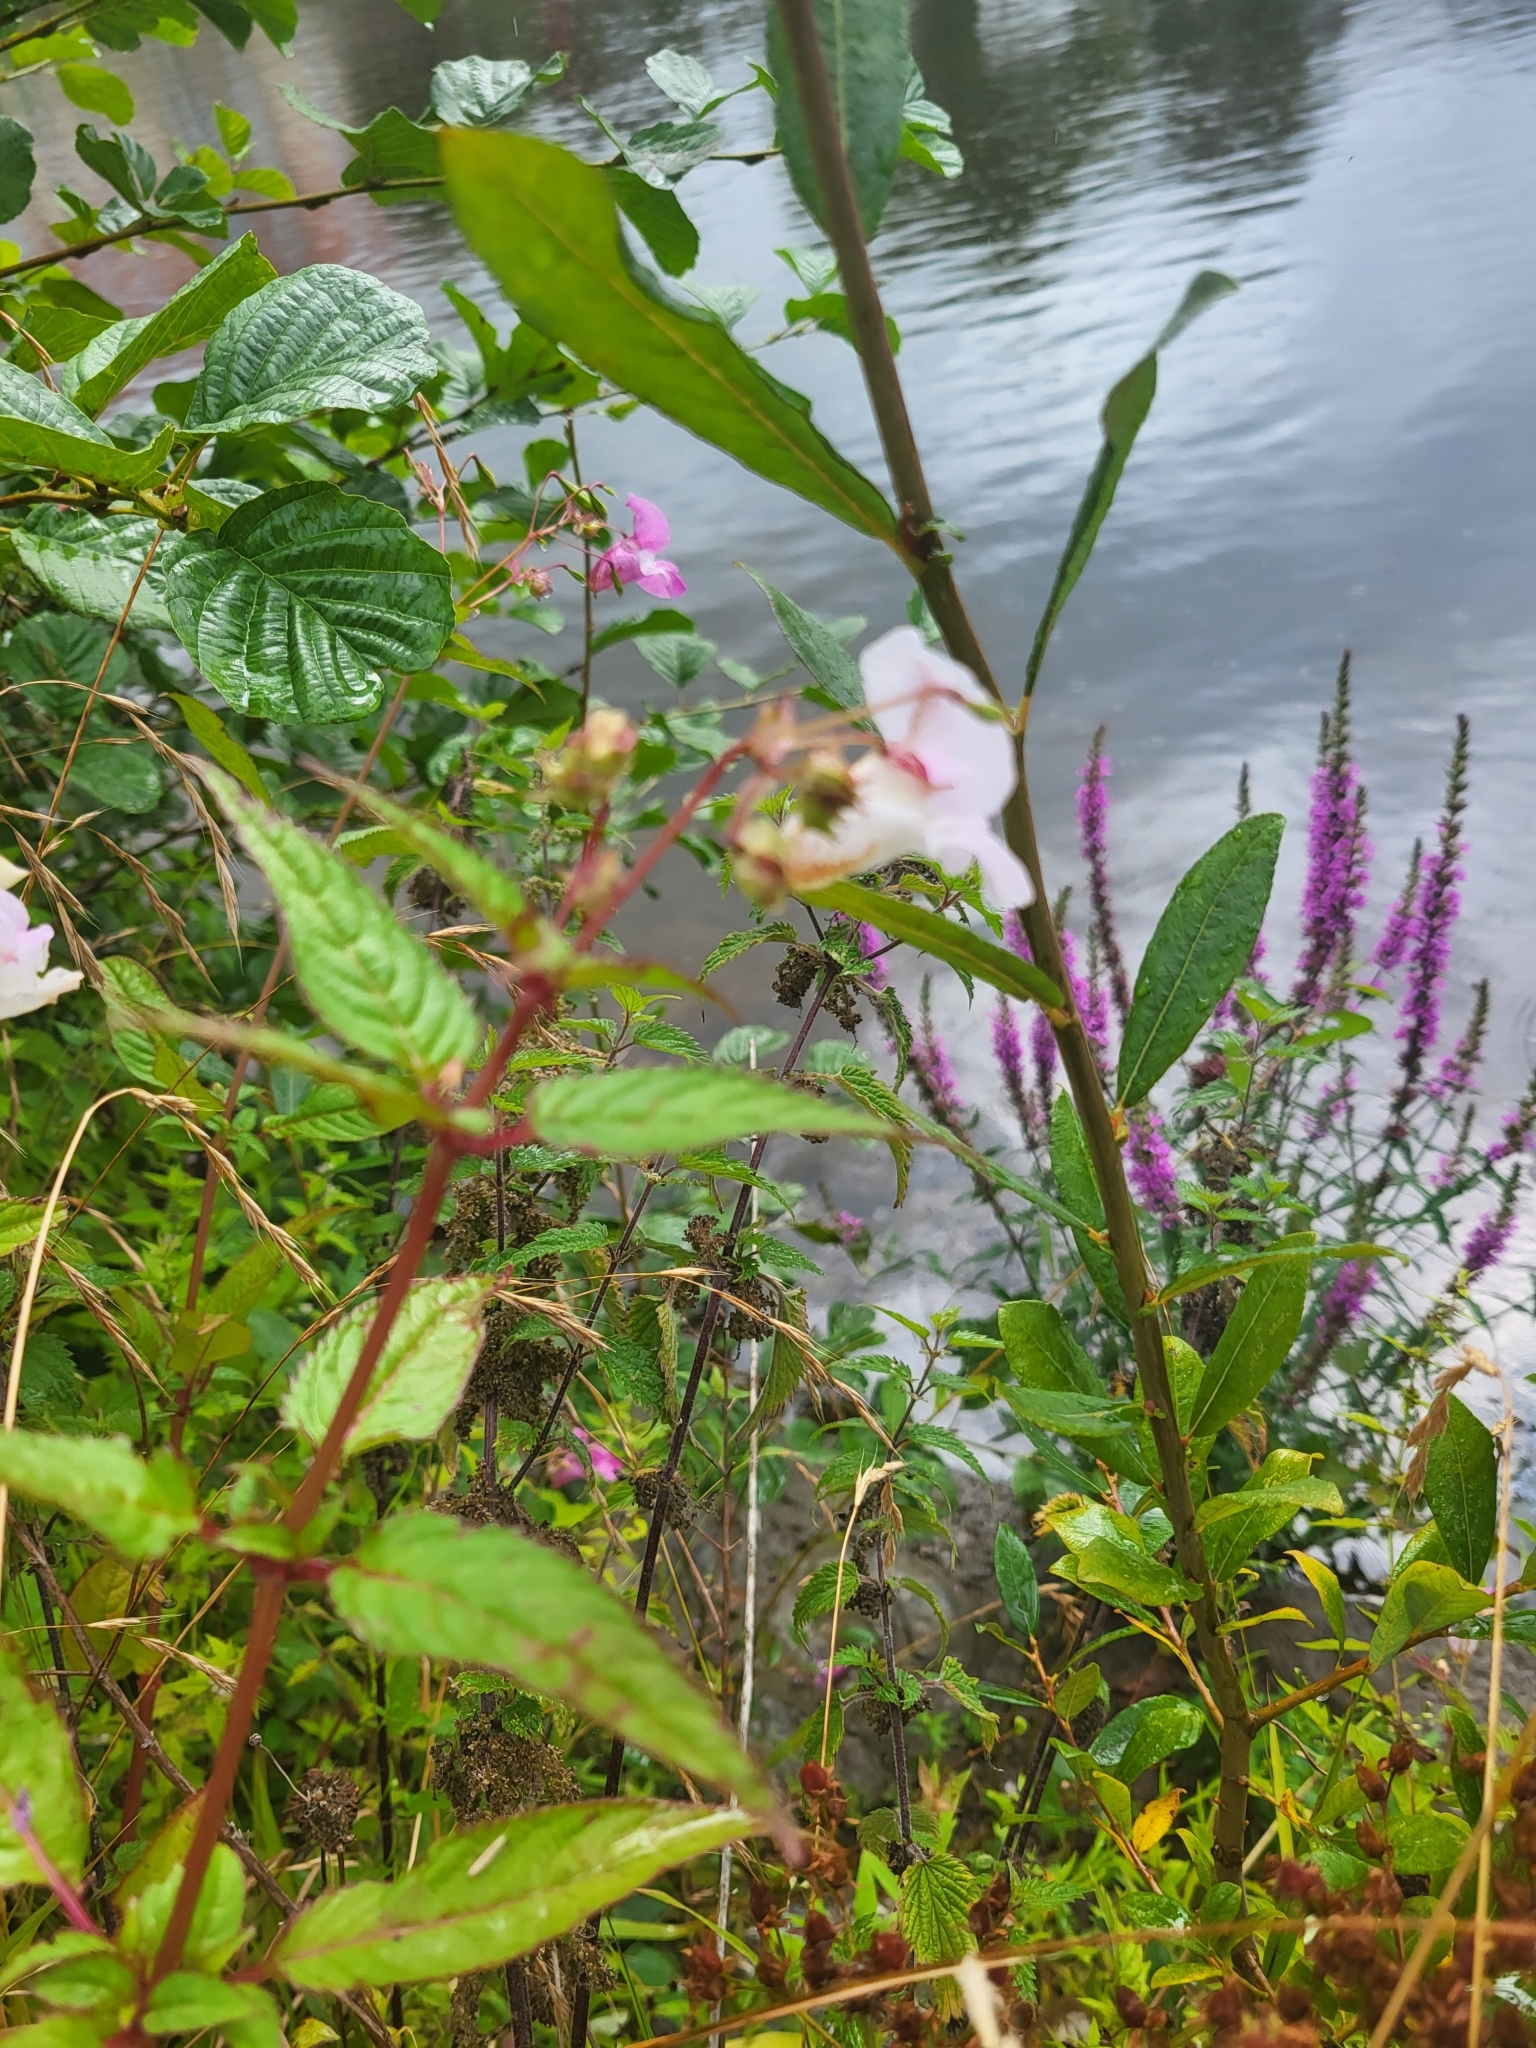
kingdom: Plantae
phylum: Tracheophyta
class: Magnoliopsida
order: Ericales
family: Balsaminaceae
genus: Impatiens
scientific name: Impatiens glandulifera
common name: Himalayan balsam
